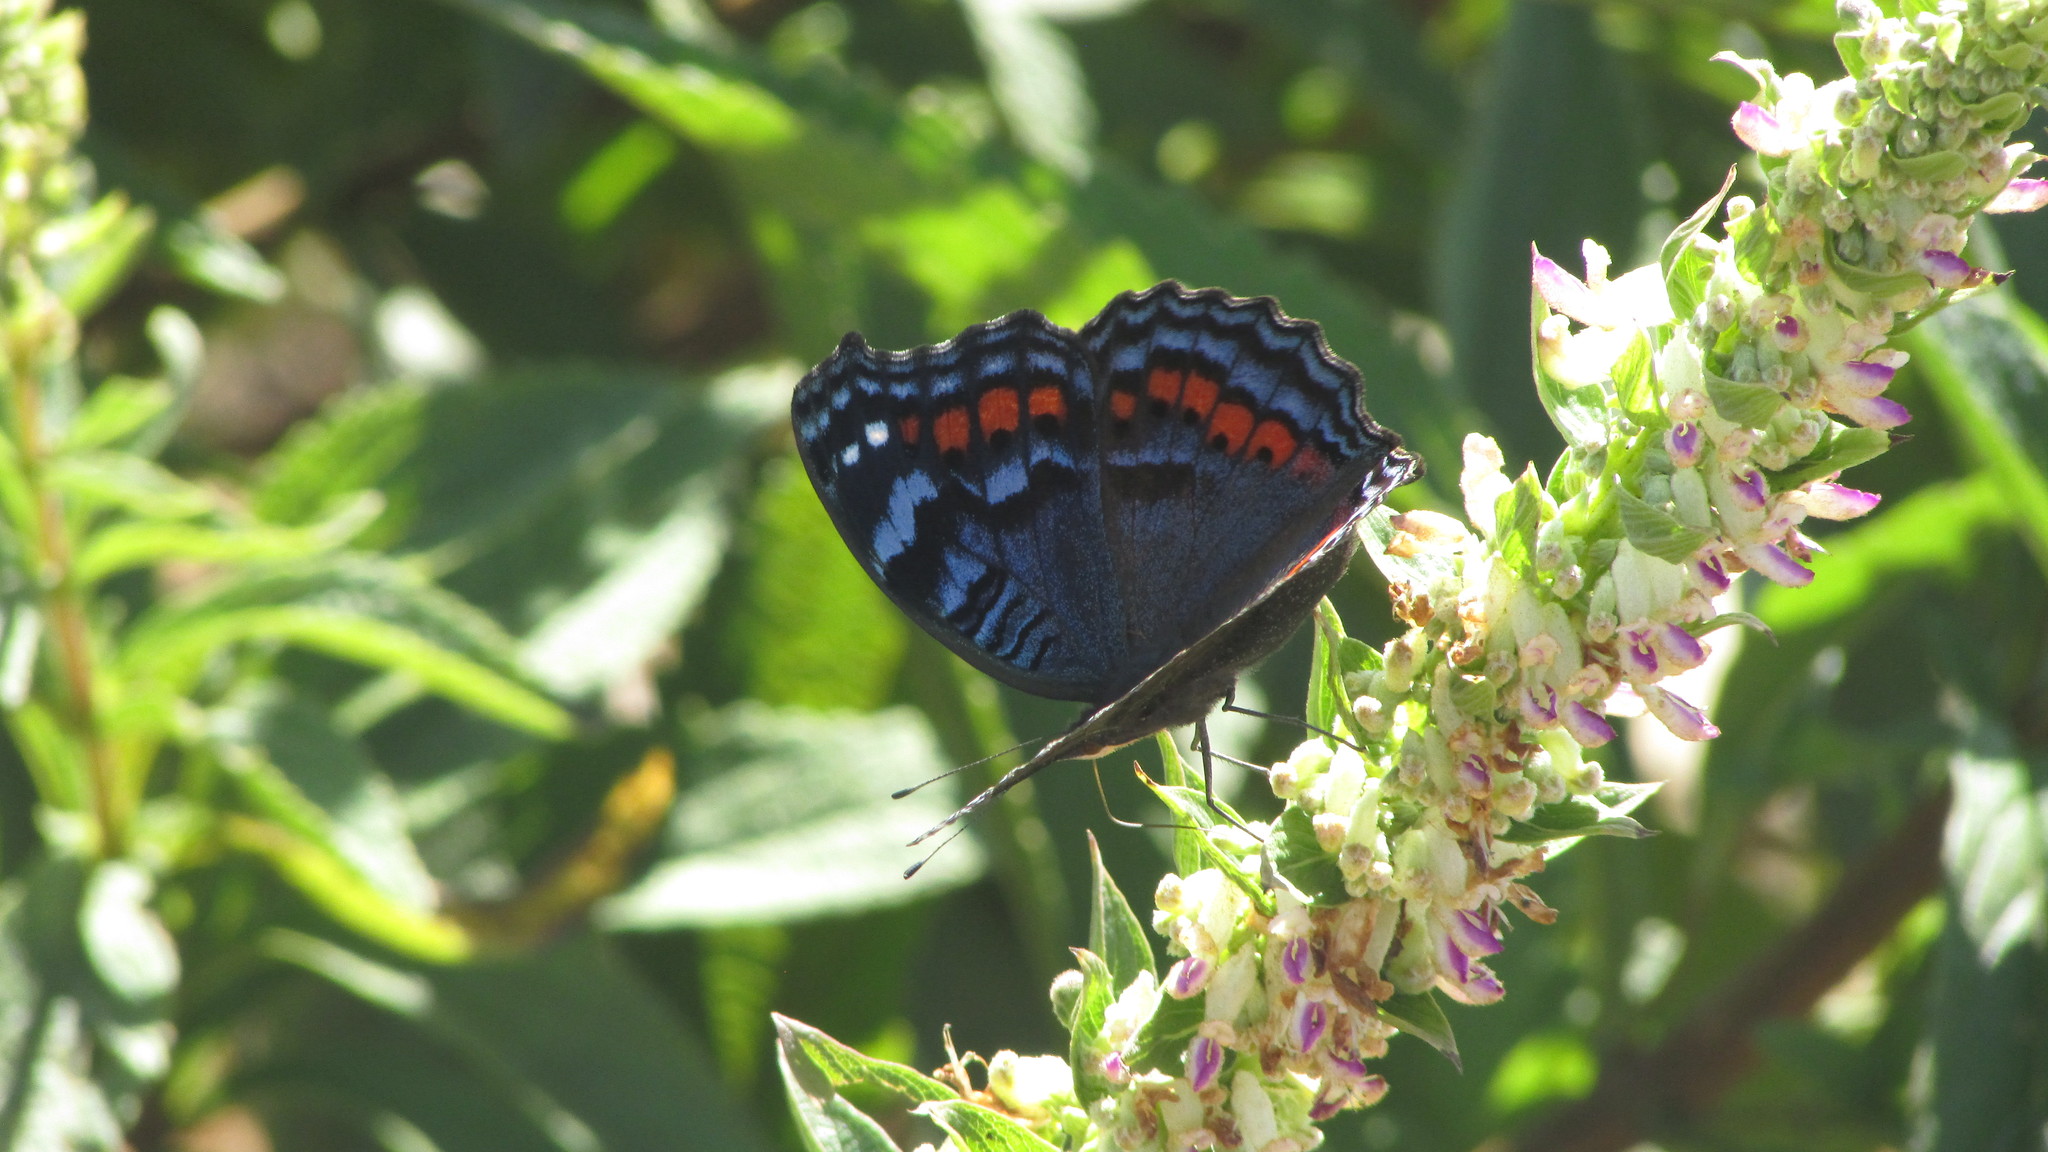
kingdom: Animalia
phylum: Arthropoda
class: Insecta
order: Lepidoptera
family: Nymphalidae
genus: Precis
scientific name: Precis octavia
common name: Gaudy commodore
